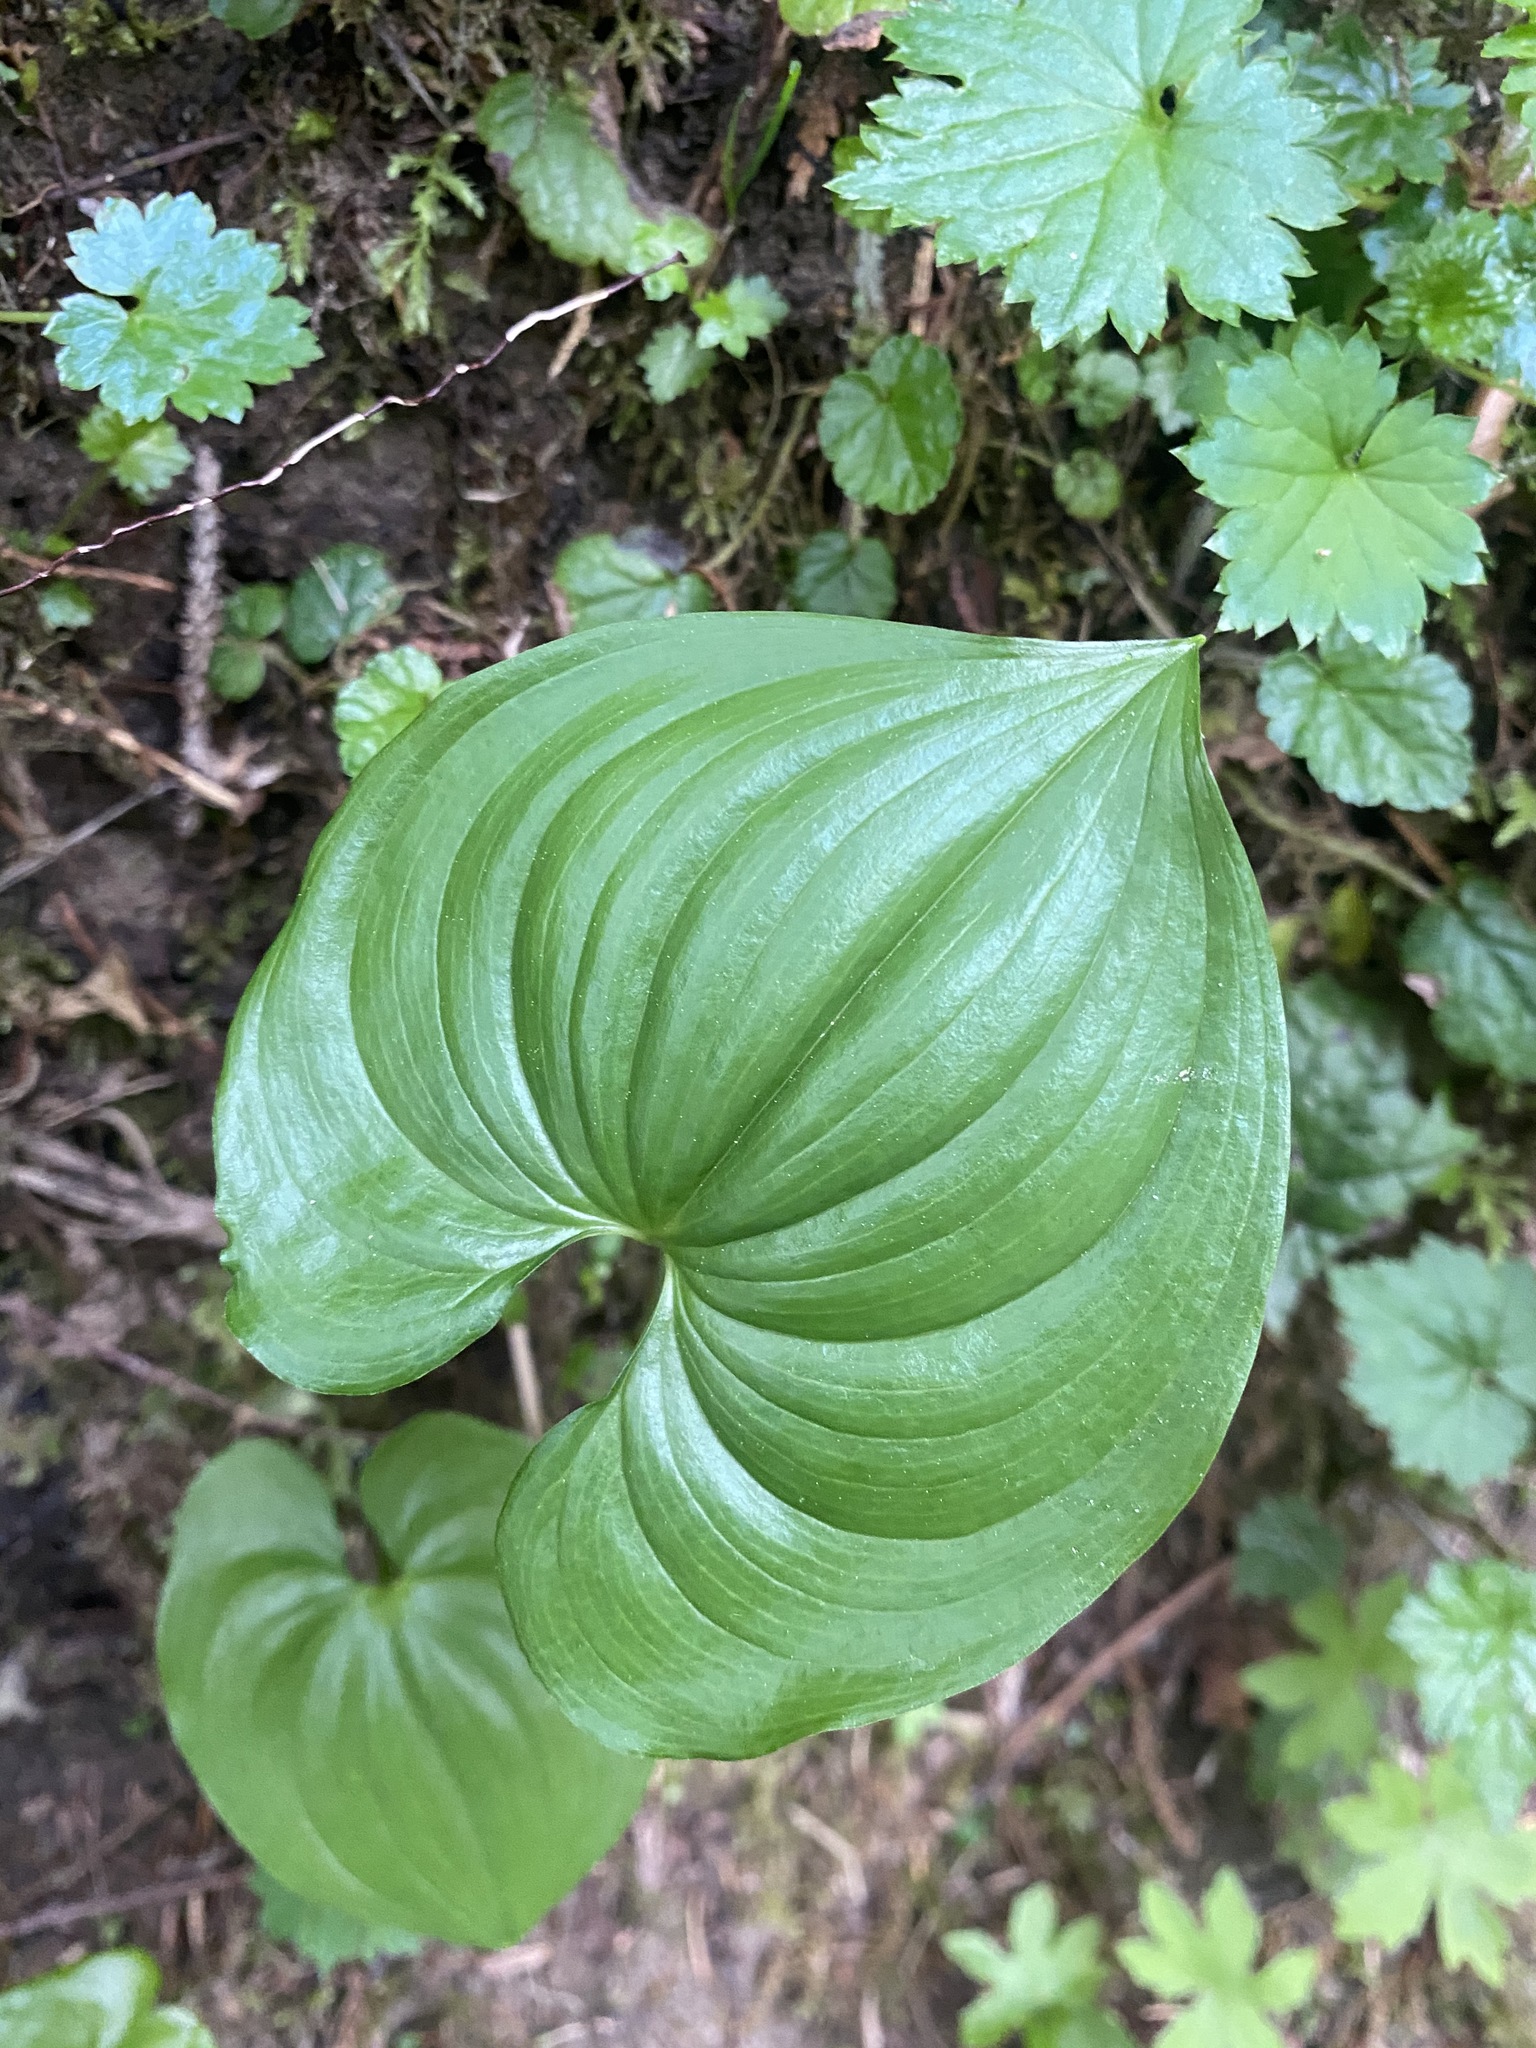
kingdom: Plantae
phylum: Tracheophyta
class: Liliopsida
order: Asparagales
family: Asparagaceae
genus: Maianthemum
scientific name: Maianthemum dilatatum
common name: False lily-of-the-valley
